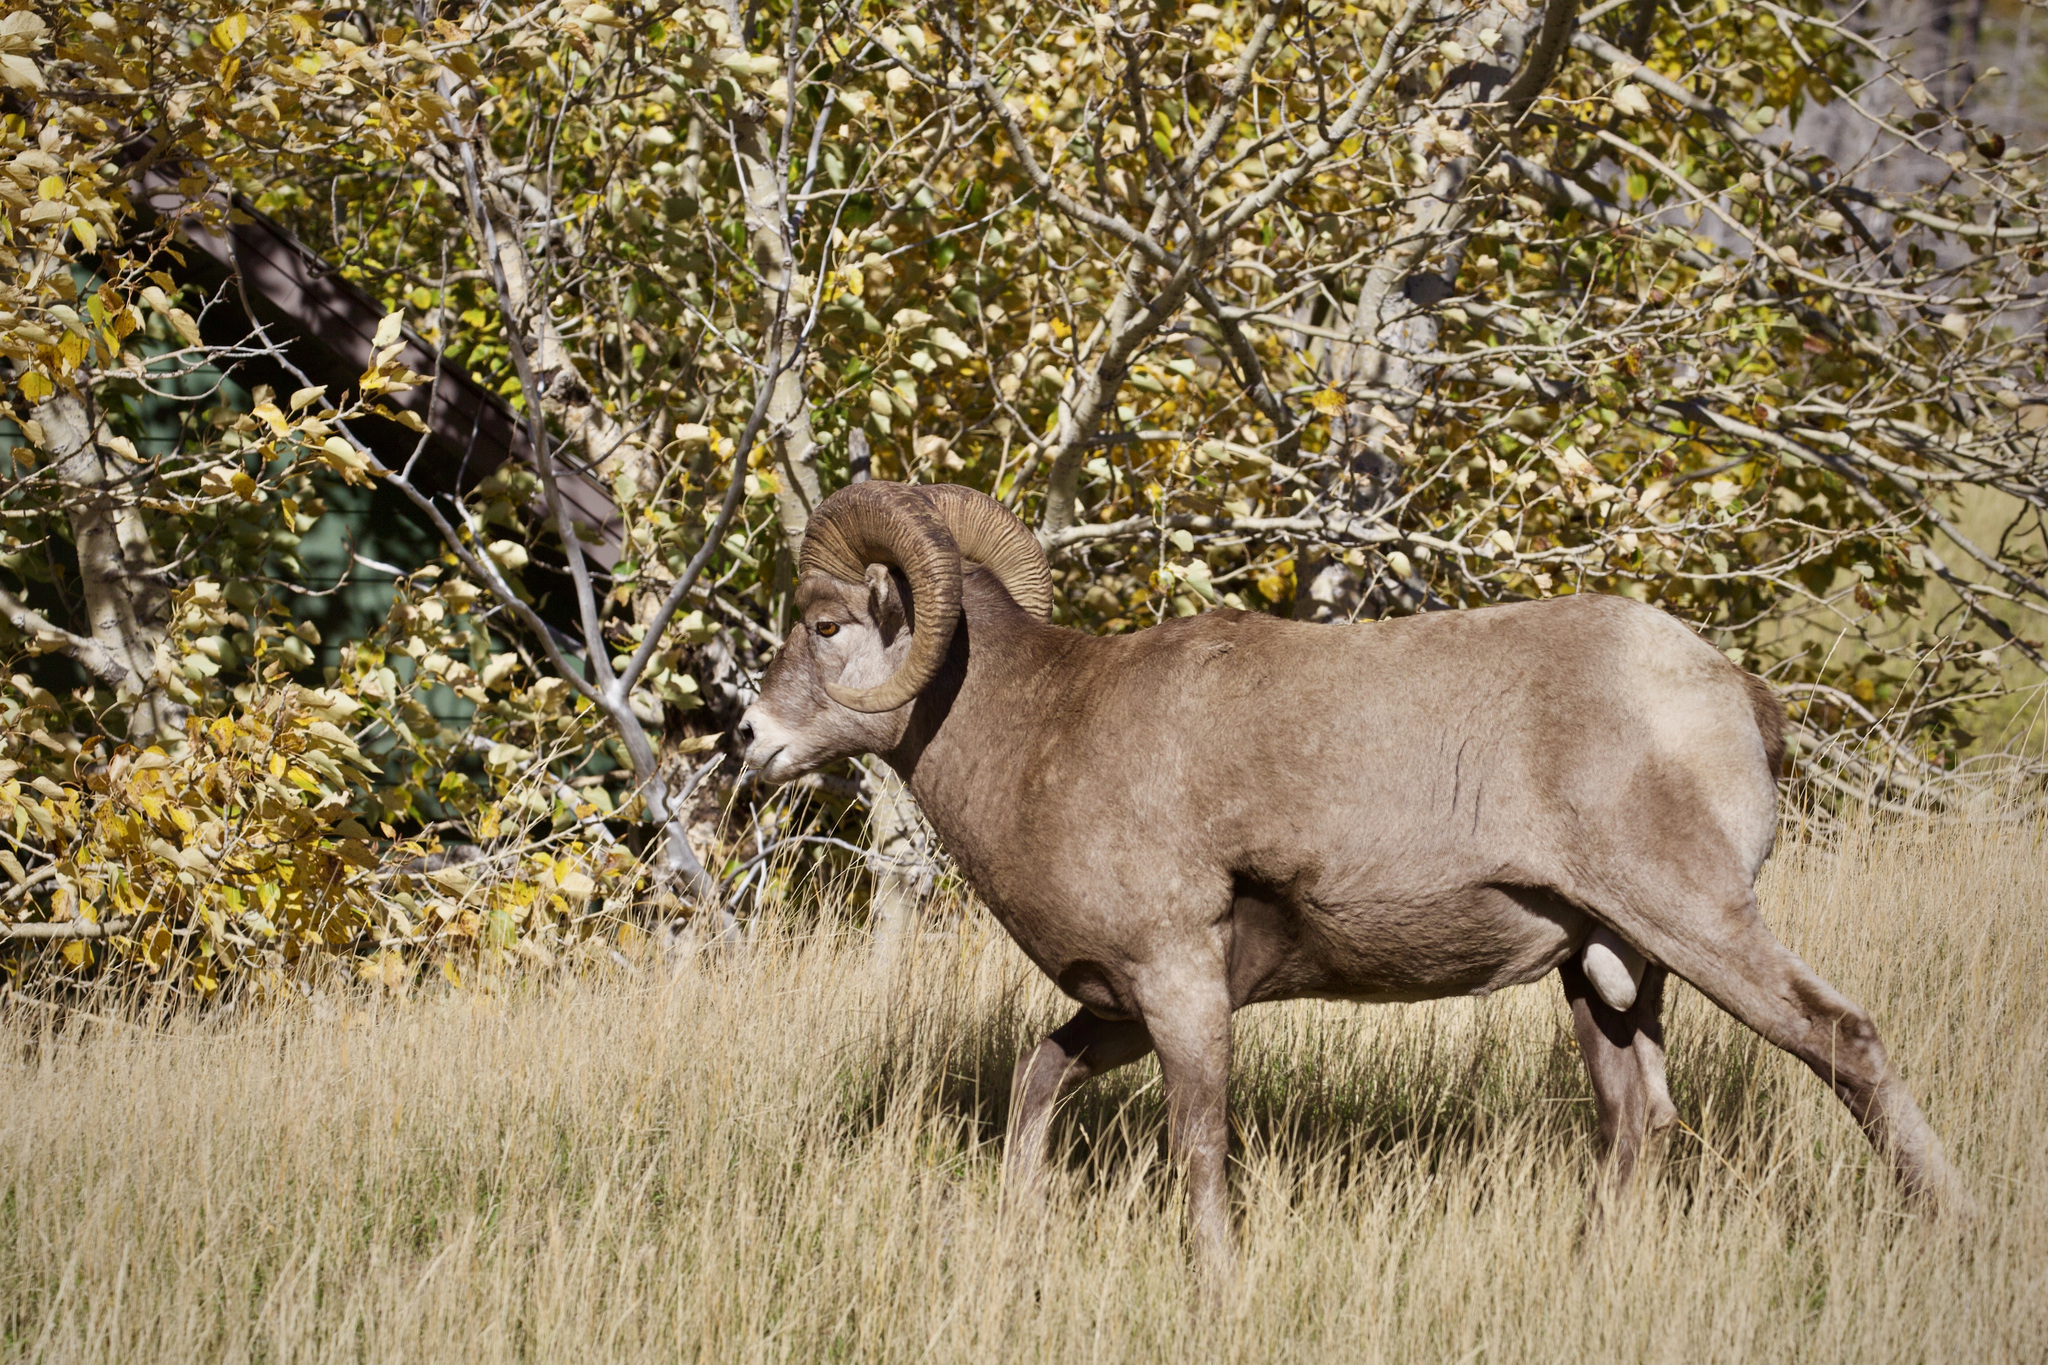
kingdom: Animalia
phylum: Chordata
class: Mammalia
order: Artiodactyla
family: Bovidae
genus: Ovis
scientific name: Ovis canadensis
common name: Bighorn sheep
